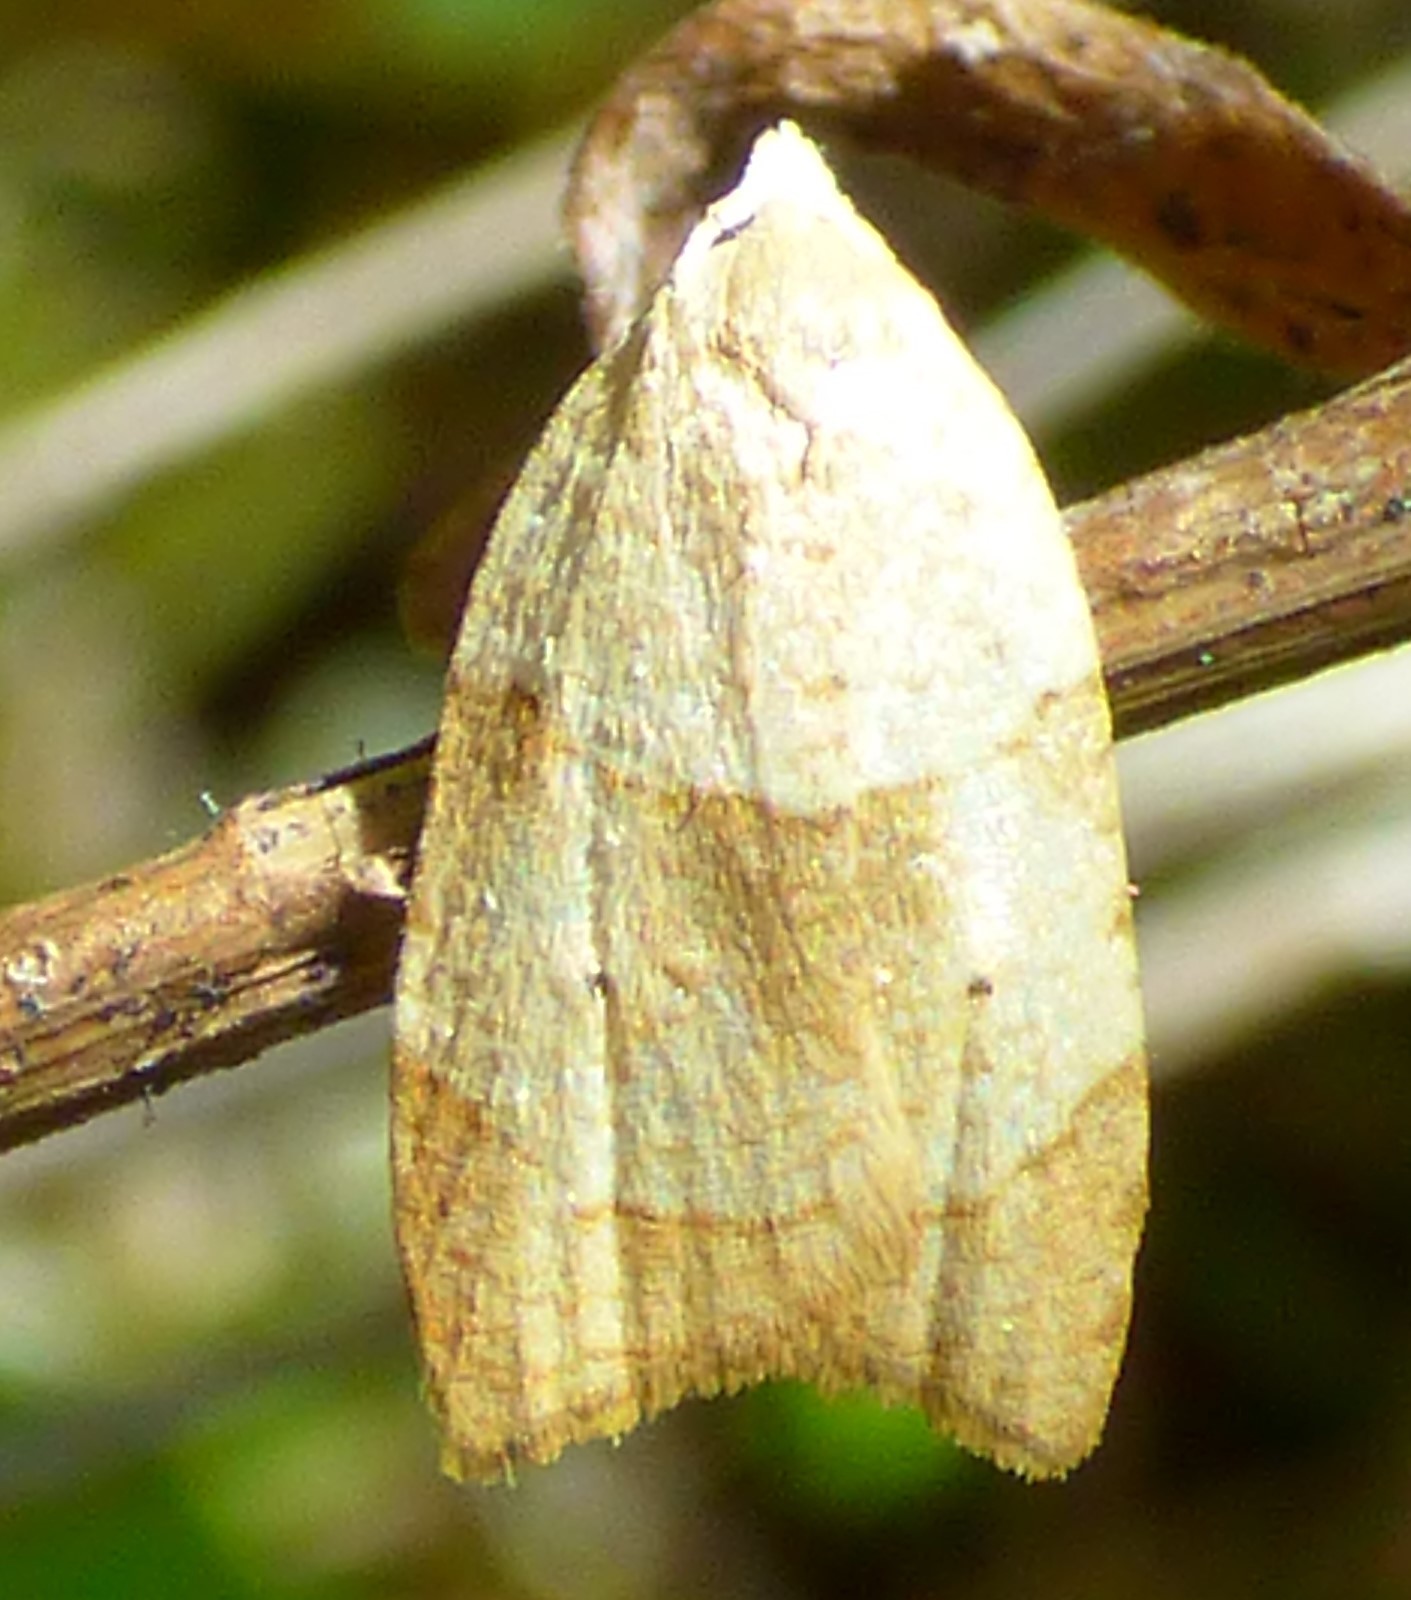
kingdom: Animalia
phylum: Arthropoda
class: Insecta
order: Lepidoptera
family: Tortricidae
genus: Coelostathma
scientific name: Coelostathma discopunctana
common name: Batman moth
